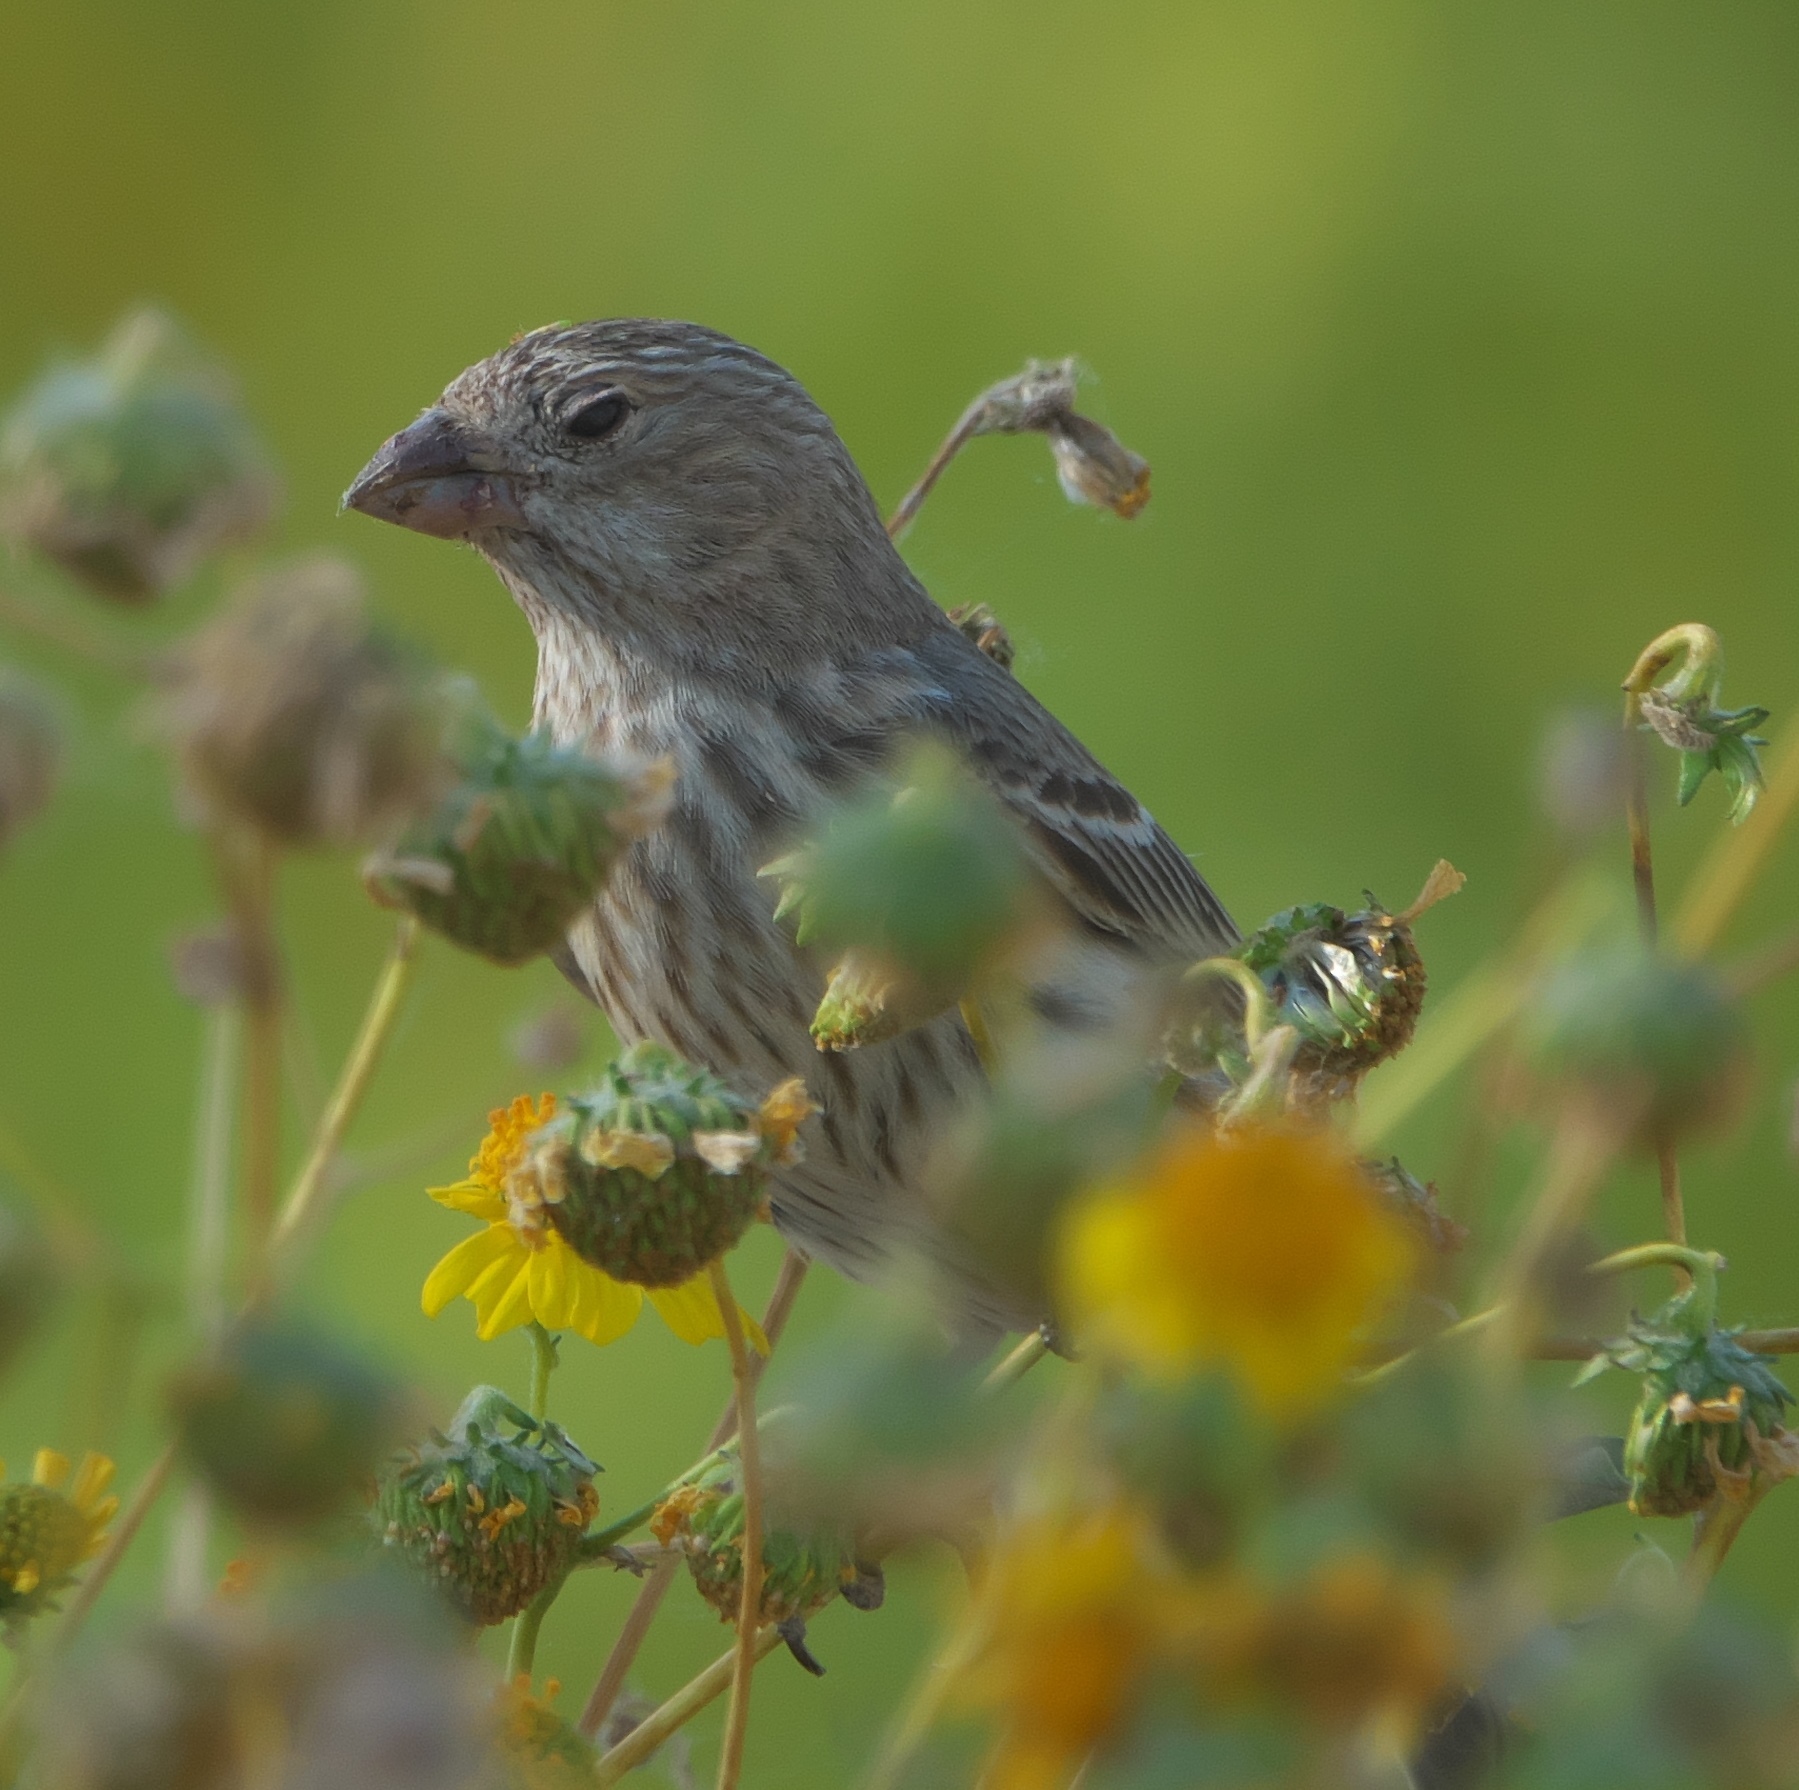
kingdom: Animalia
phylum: Chordata
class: Aves
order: Passeriformes
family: Fringillidae
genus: Haemorhous
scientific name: Haemorhous mexicanus
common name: House finch
